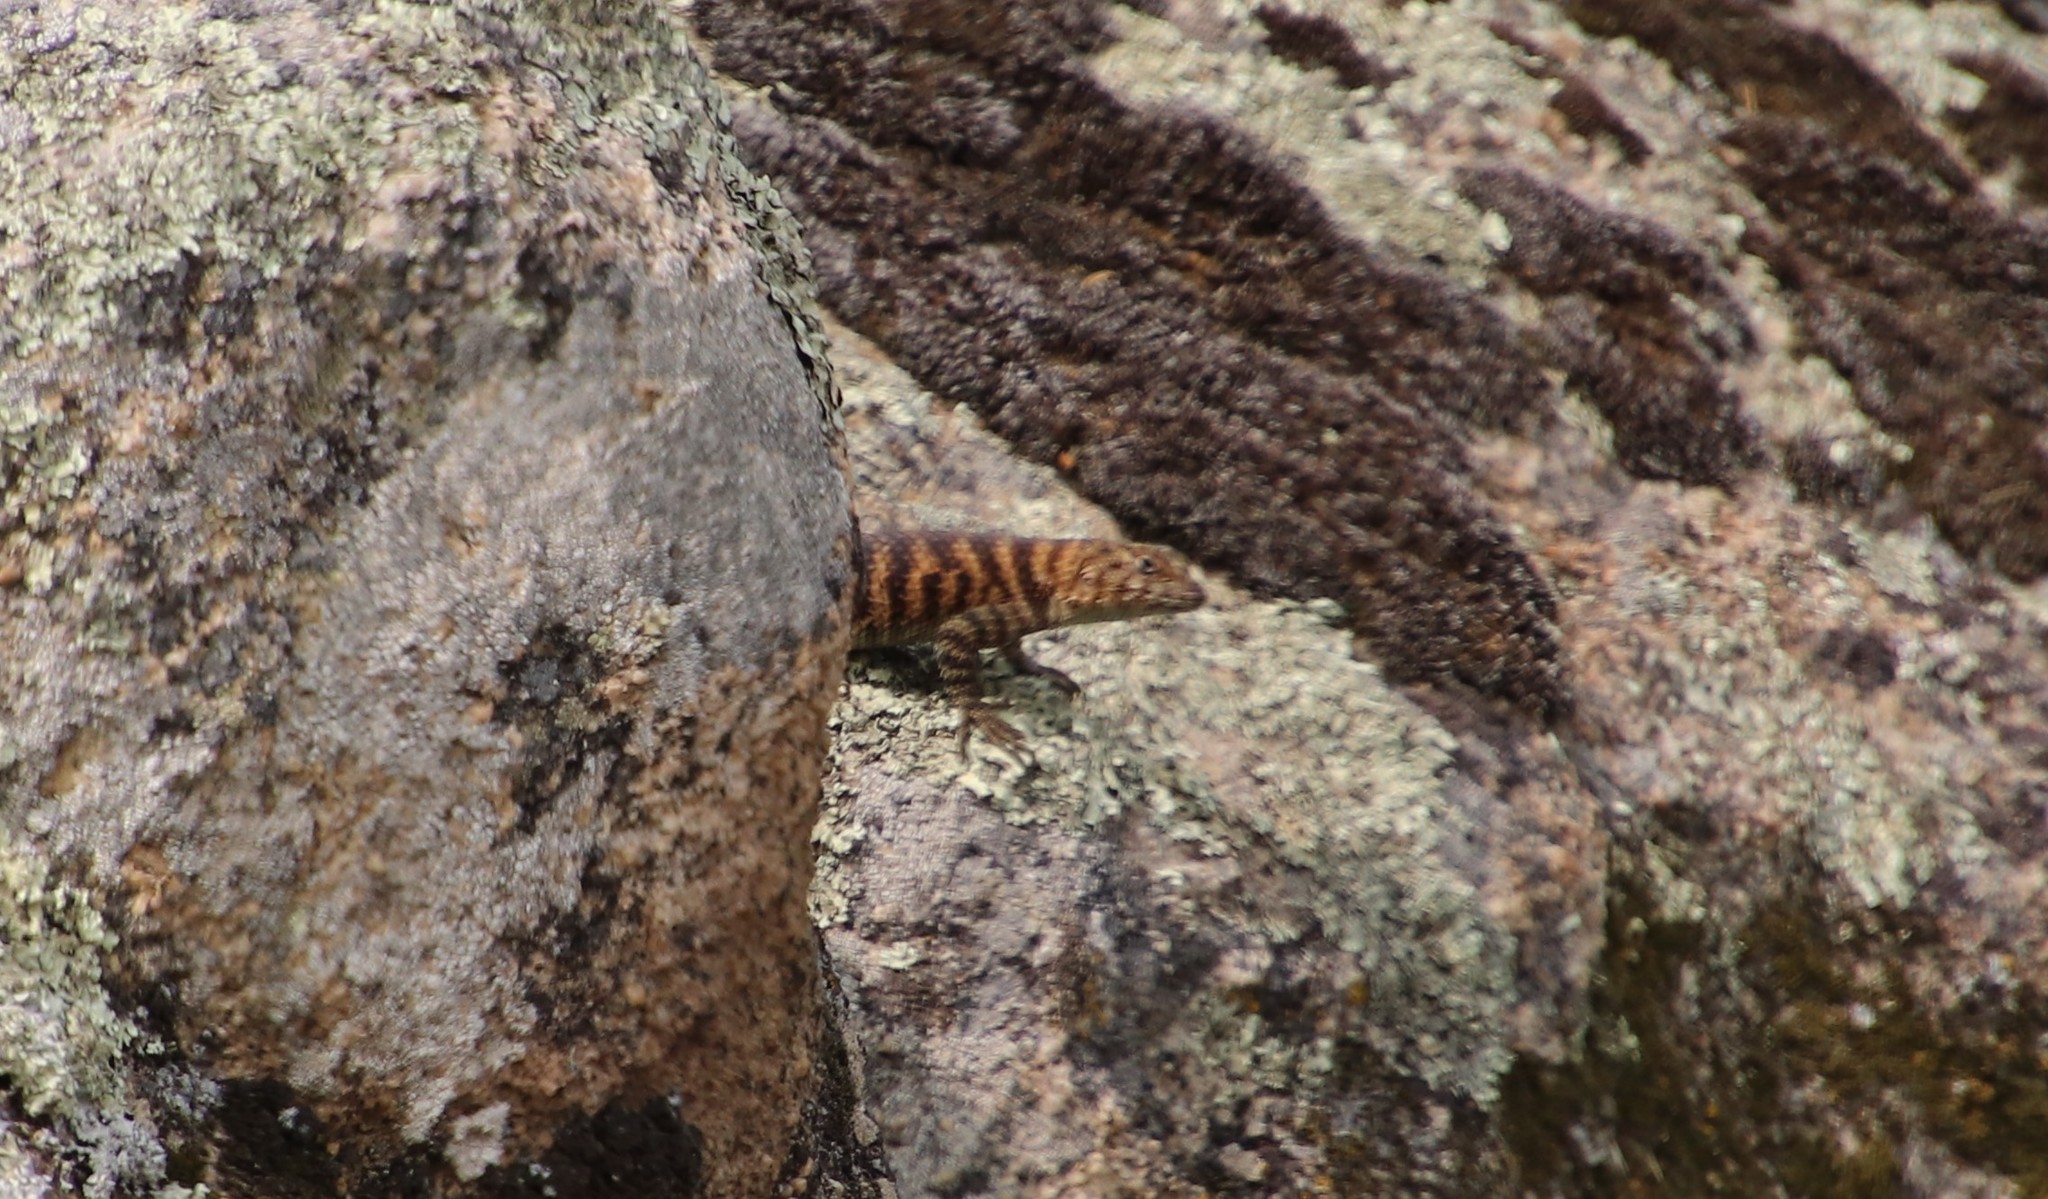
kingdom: Animalia
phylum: Chordata
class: Squamata
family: Phrynosomatidae
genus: Sceloporus
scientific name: Sceloporus orcutti
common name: Granite spiny lizard
